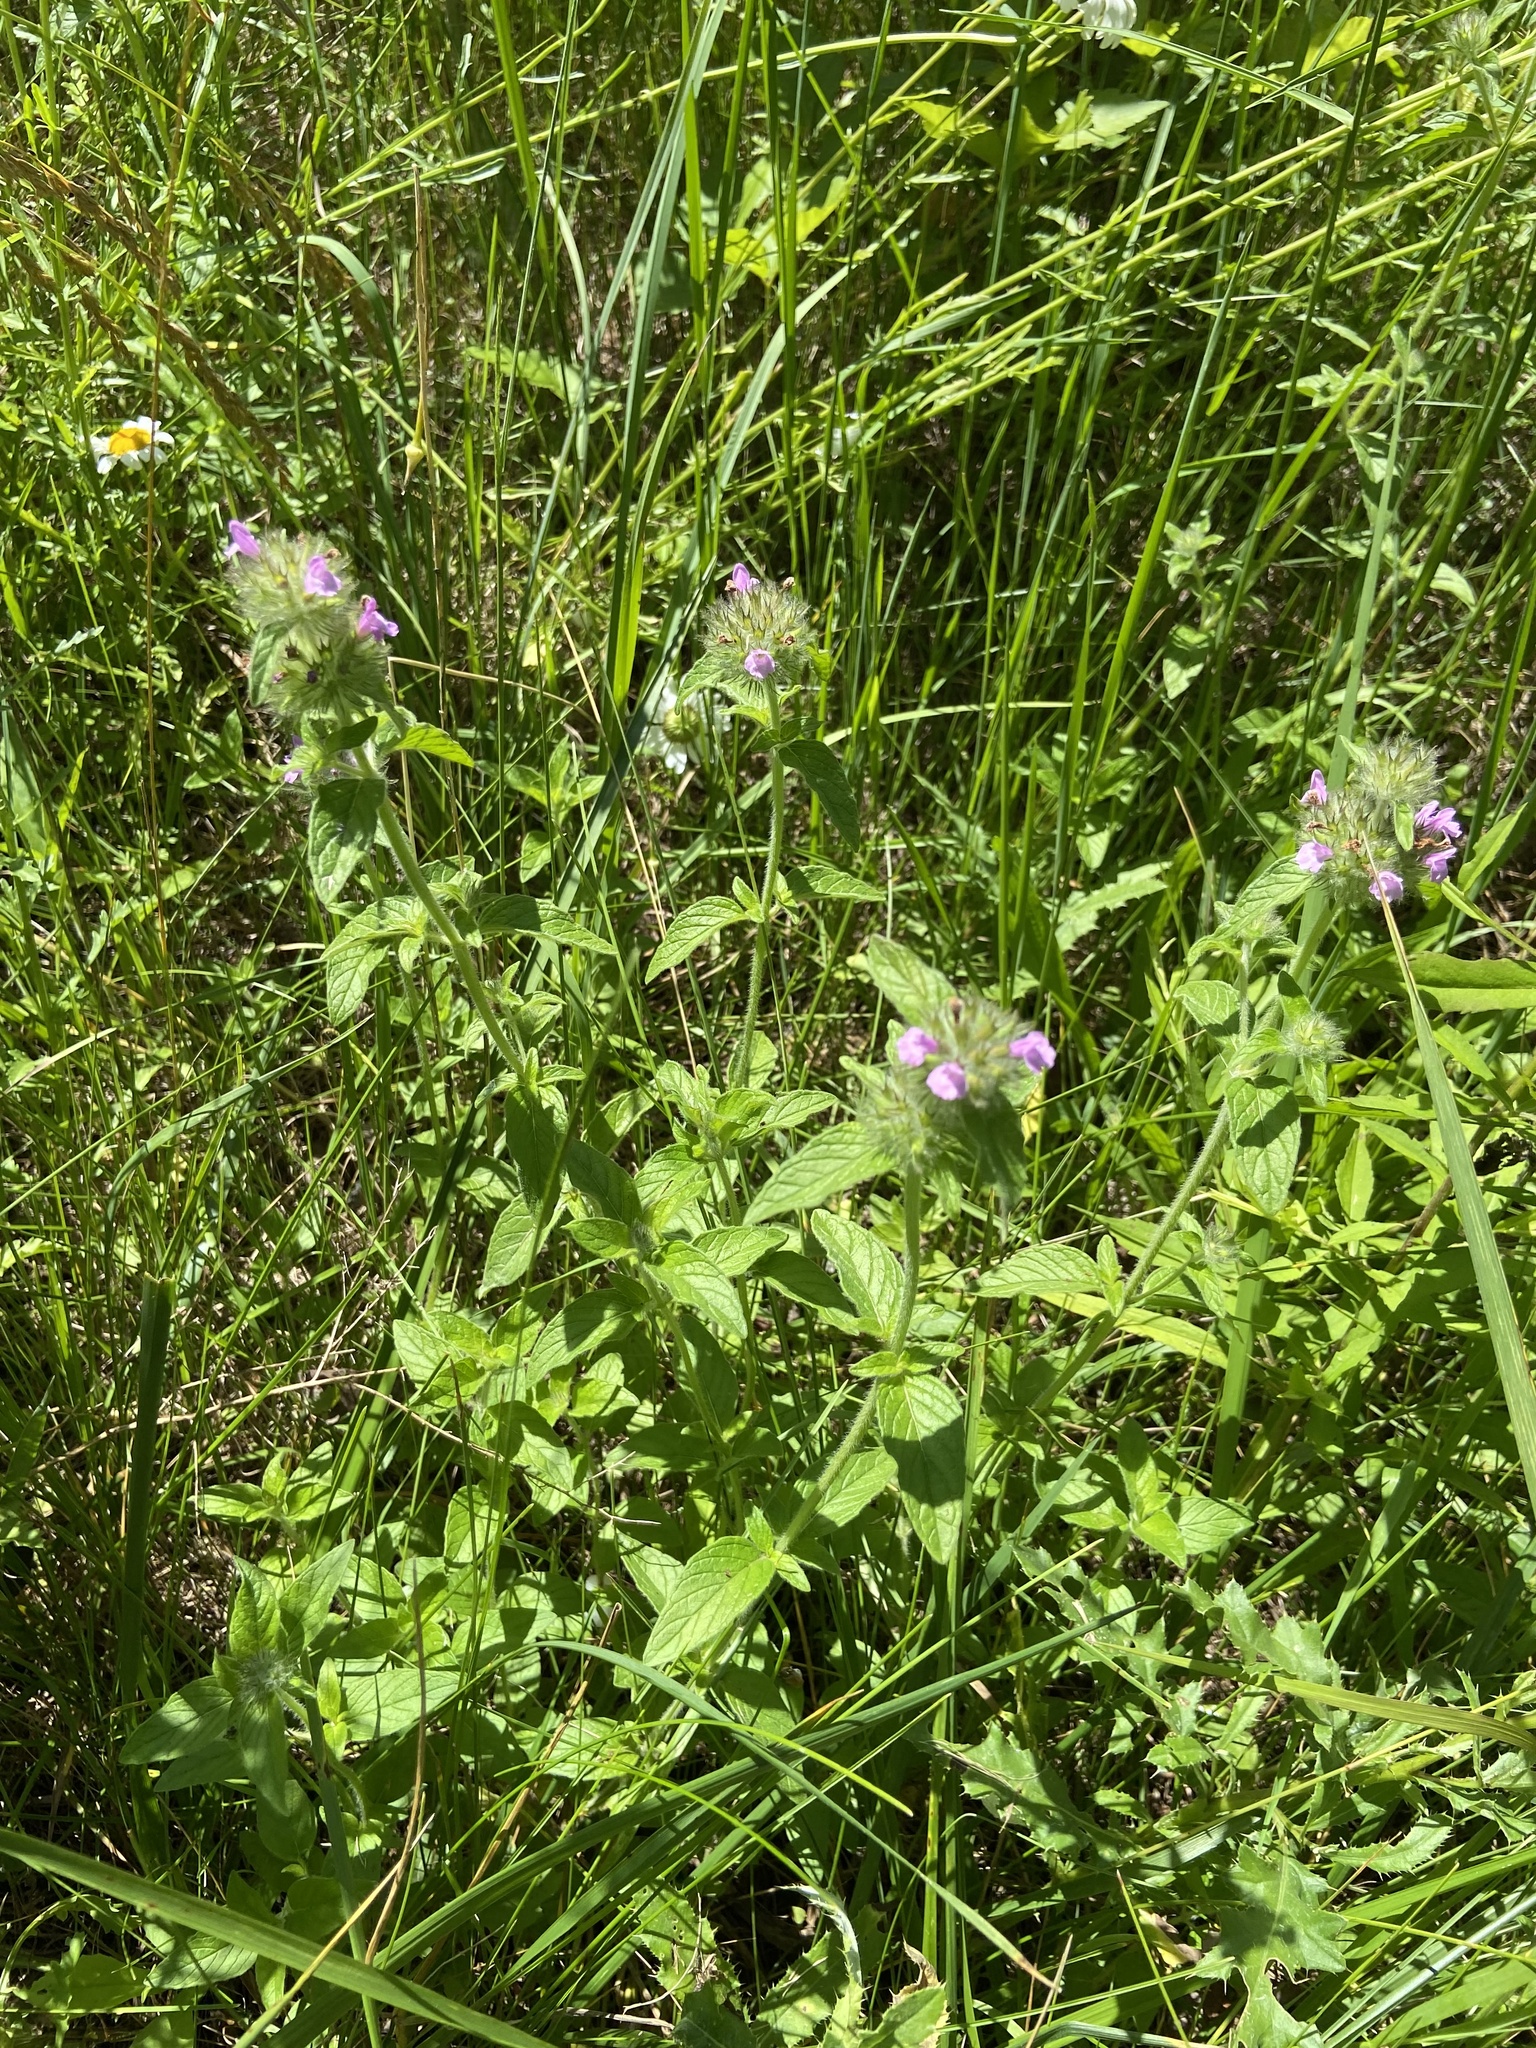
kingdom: Plantae
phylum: Tracheophyta
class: Magnoliopsida
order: Lamiales
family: Lamiaceae
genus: Clinopodium
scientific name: Clinopodium vulgare
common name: Wild basil
